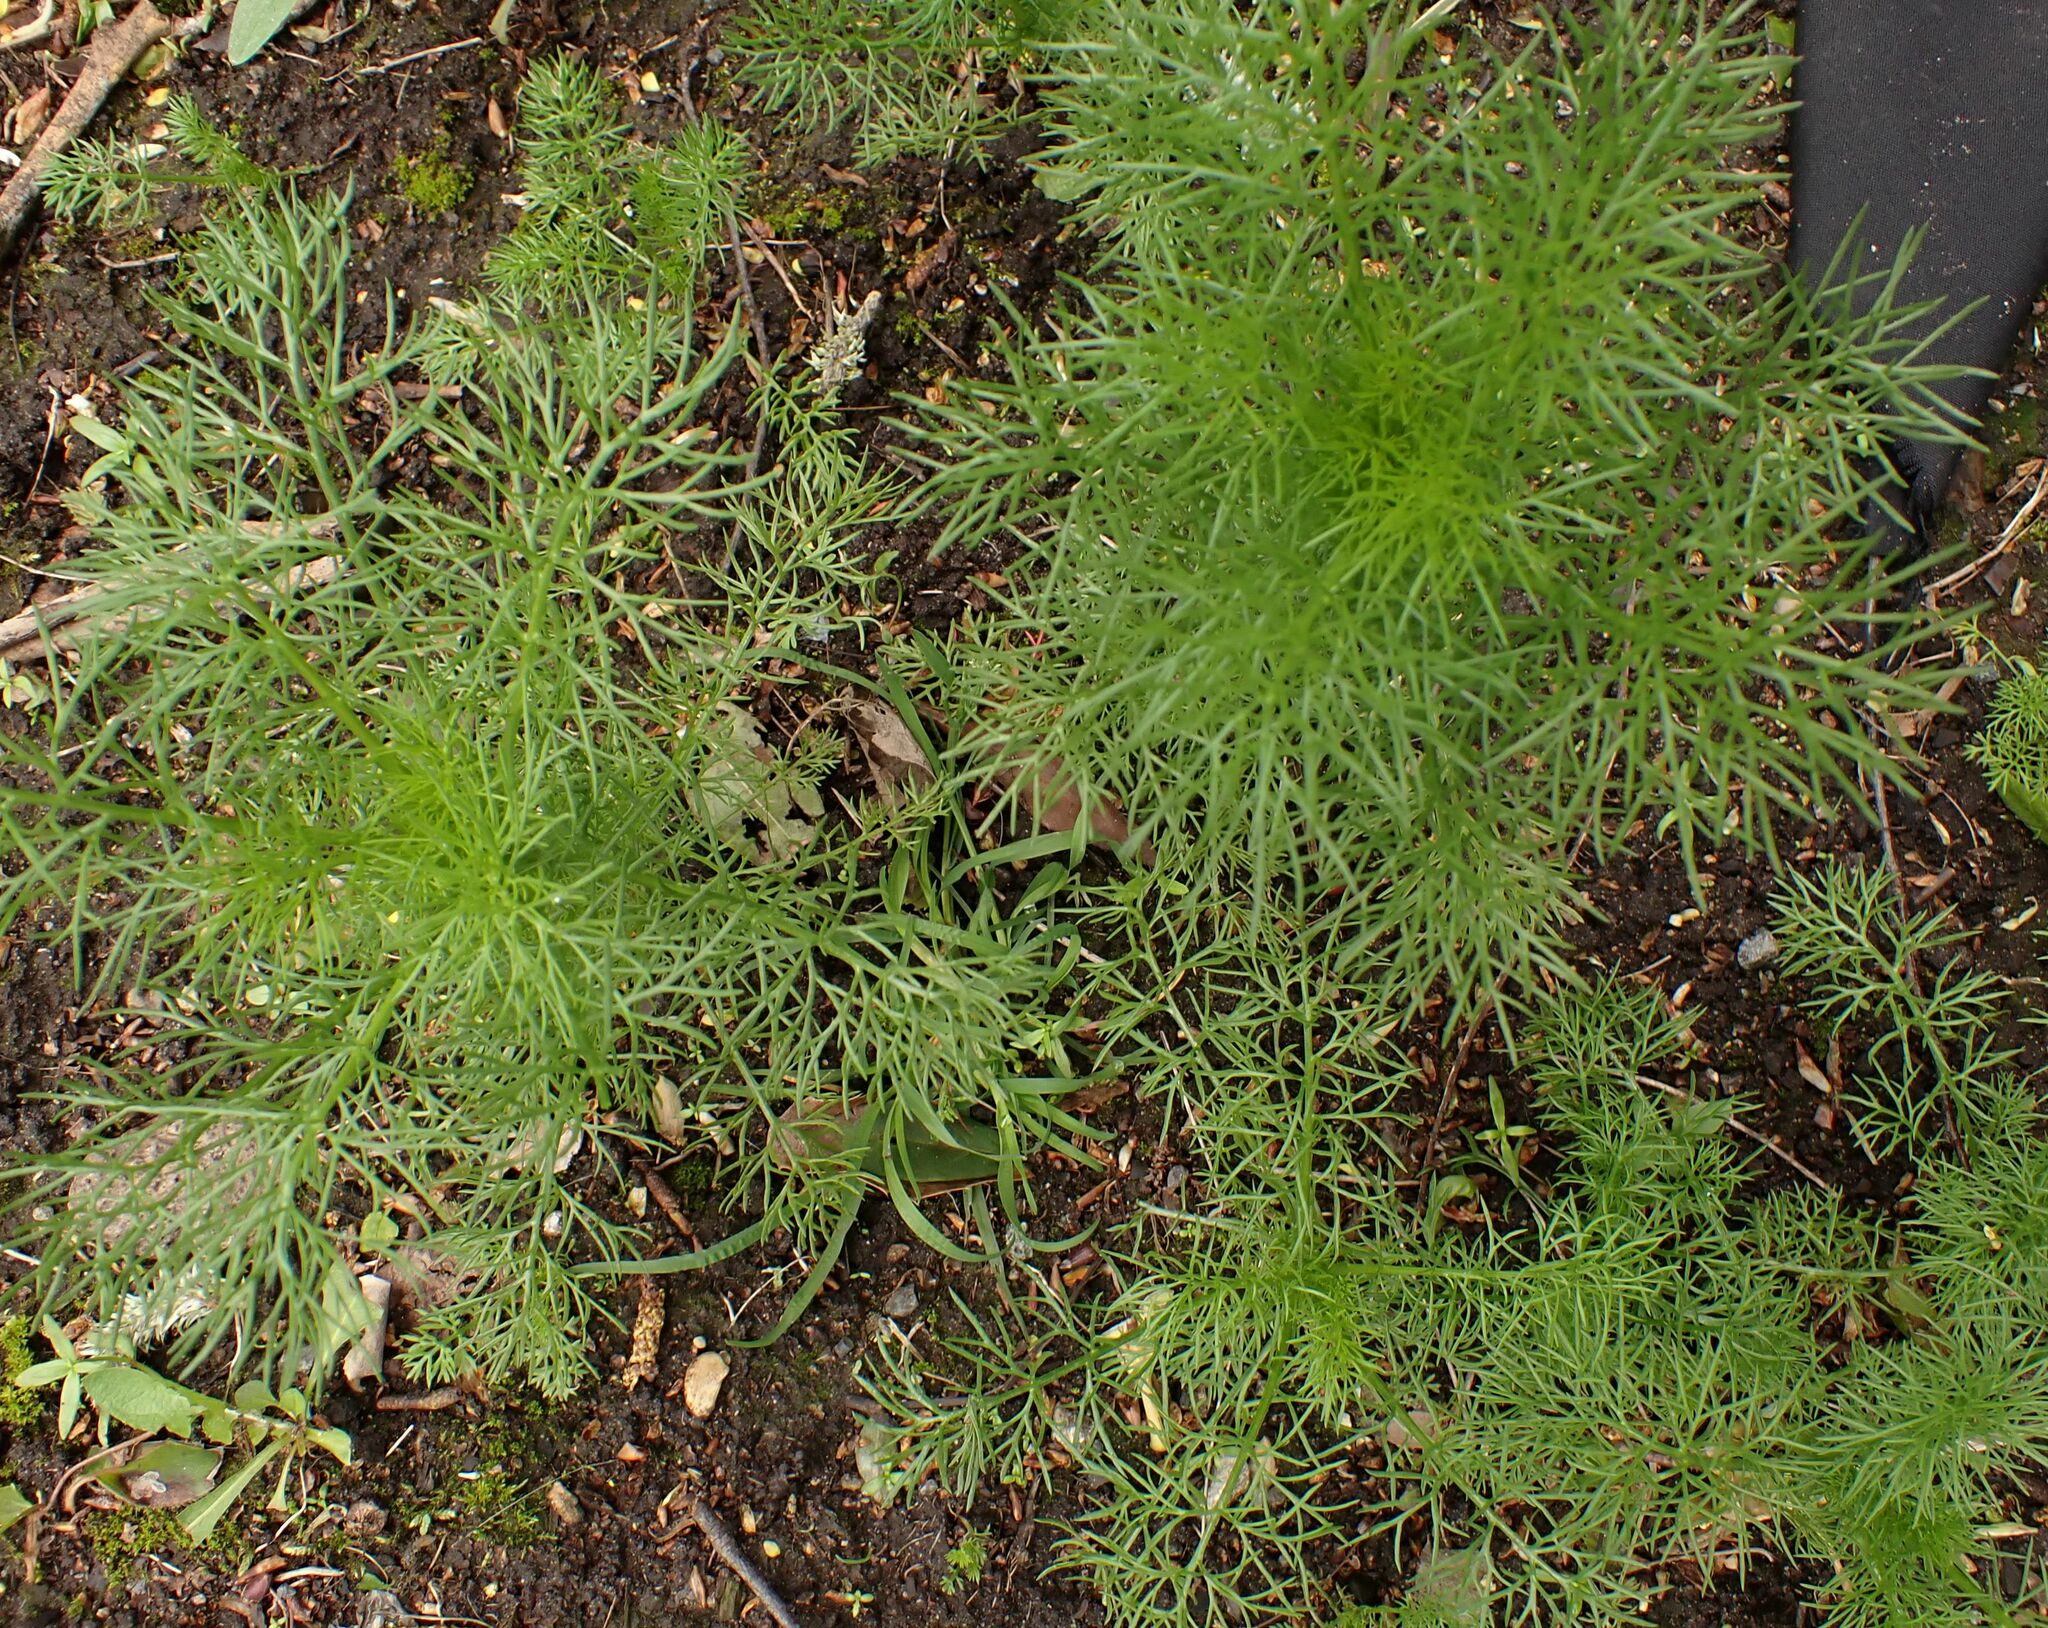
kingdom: Plantae
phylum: Tracheophyta
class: Magnoliopsida
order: Ranunculales
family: Ranunculaceae
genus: Nigella
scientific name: Nigella damascena
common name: Love-in-a-mist
